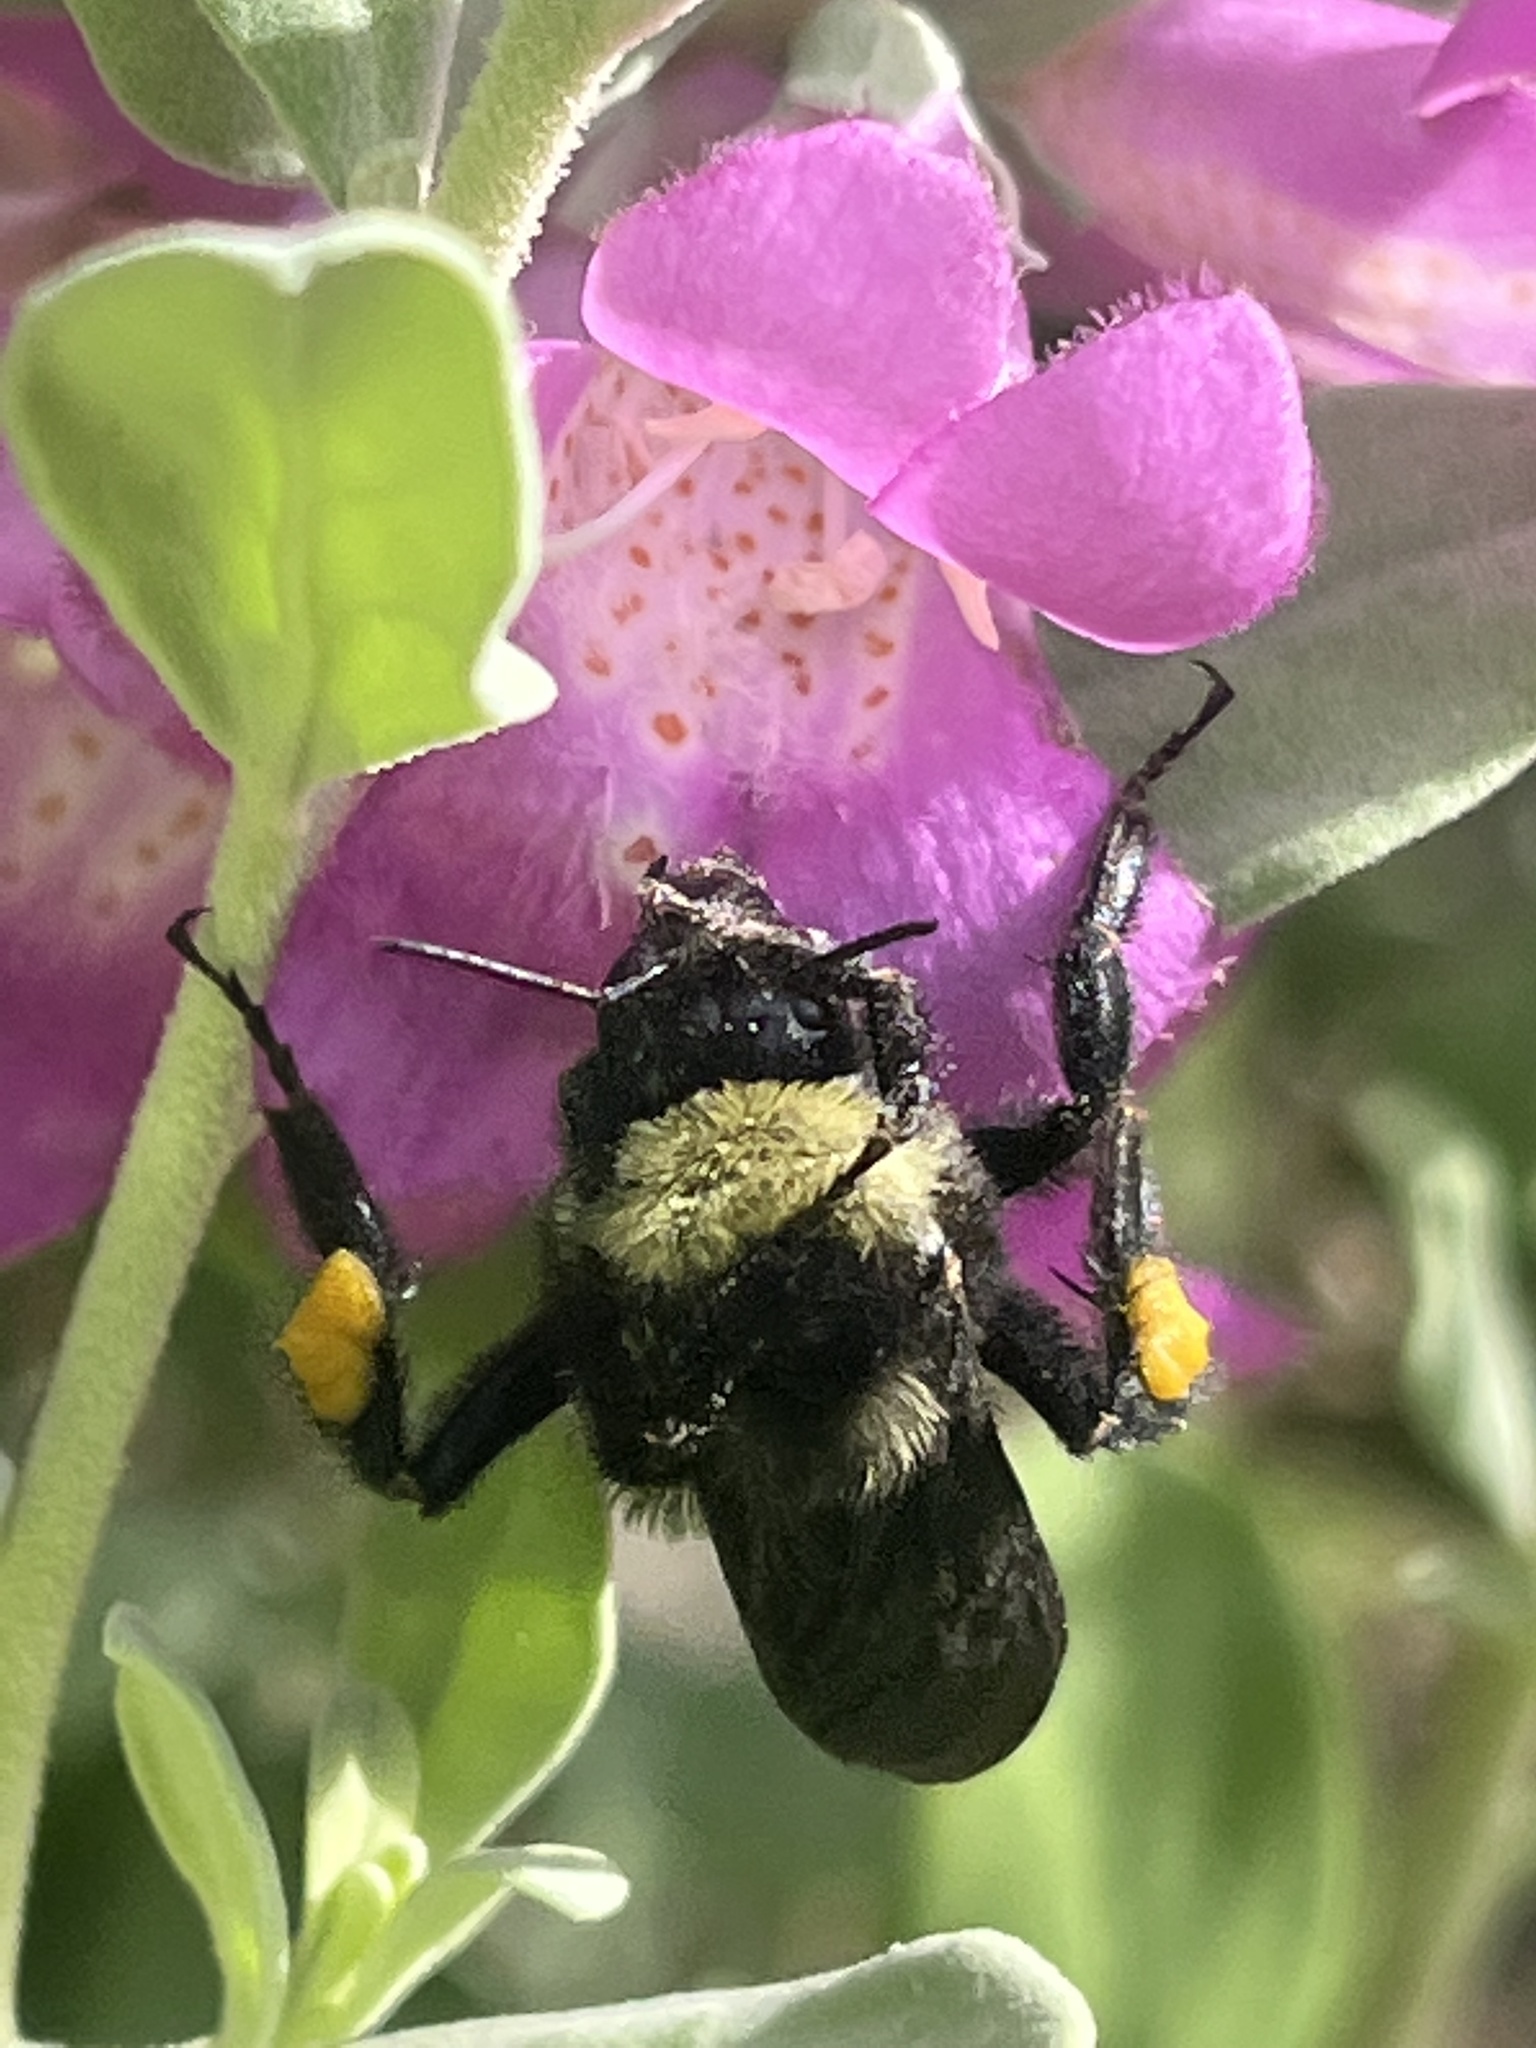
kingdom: Animalia
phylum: Arthropoda
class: Insecta
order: Hymenoptera
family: Apidae
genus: Bombus
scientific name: Bombus pensylvanicus
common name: Bumble bee
